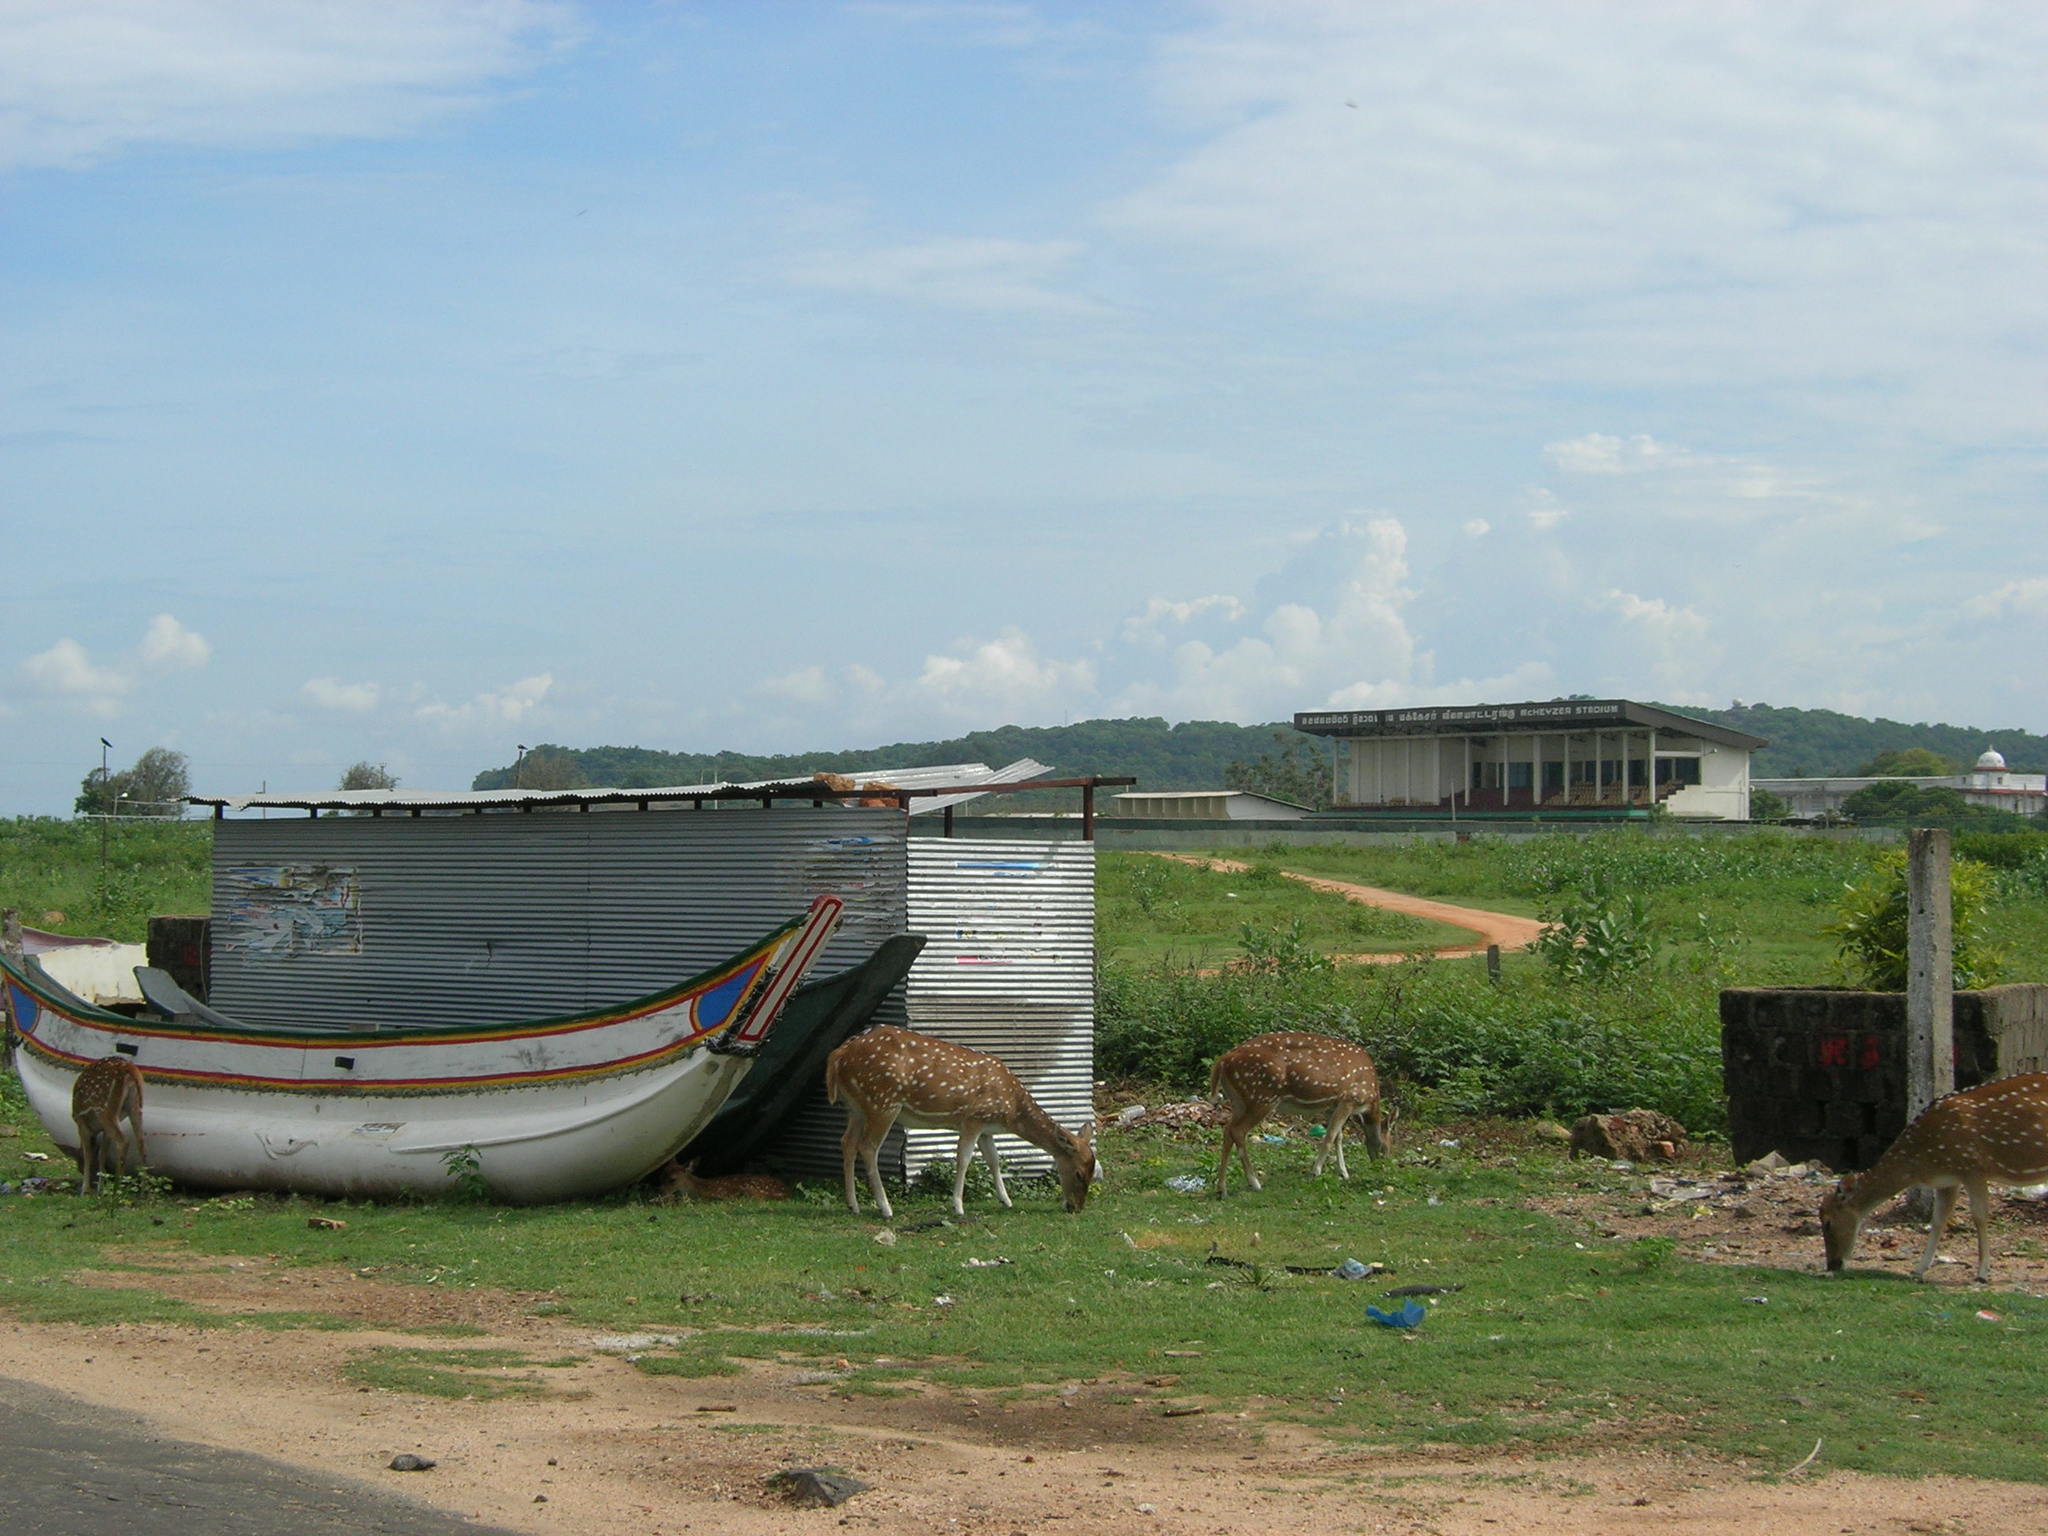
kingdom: Animalia
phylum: Chordata
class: Mammalia
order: Artiodactyla
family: Cervidae
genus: Axis
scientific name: Axis axis
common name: Chital
